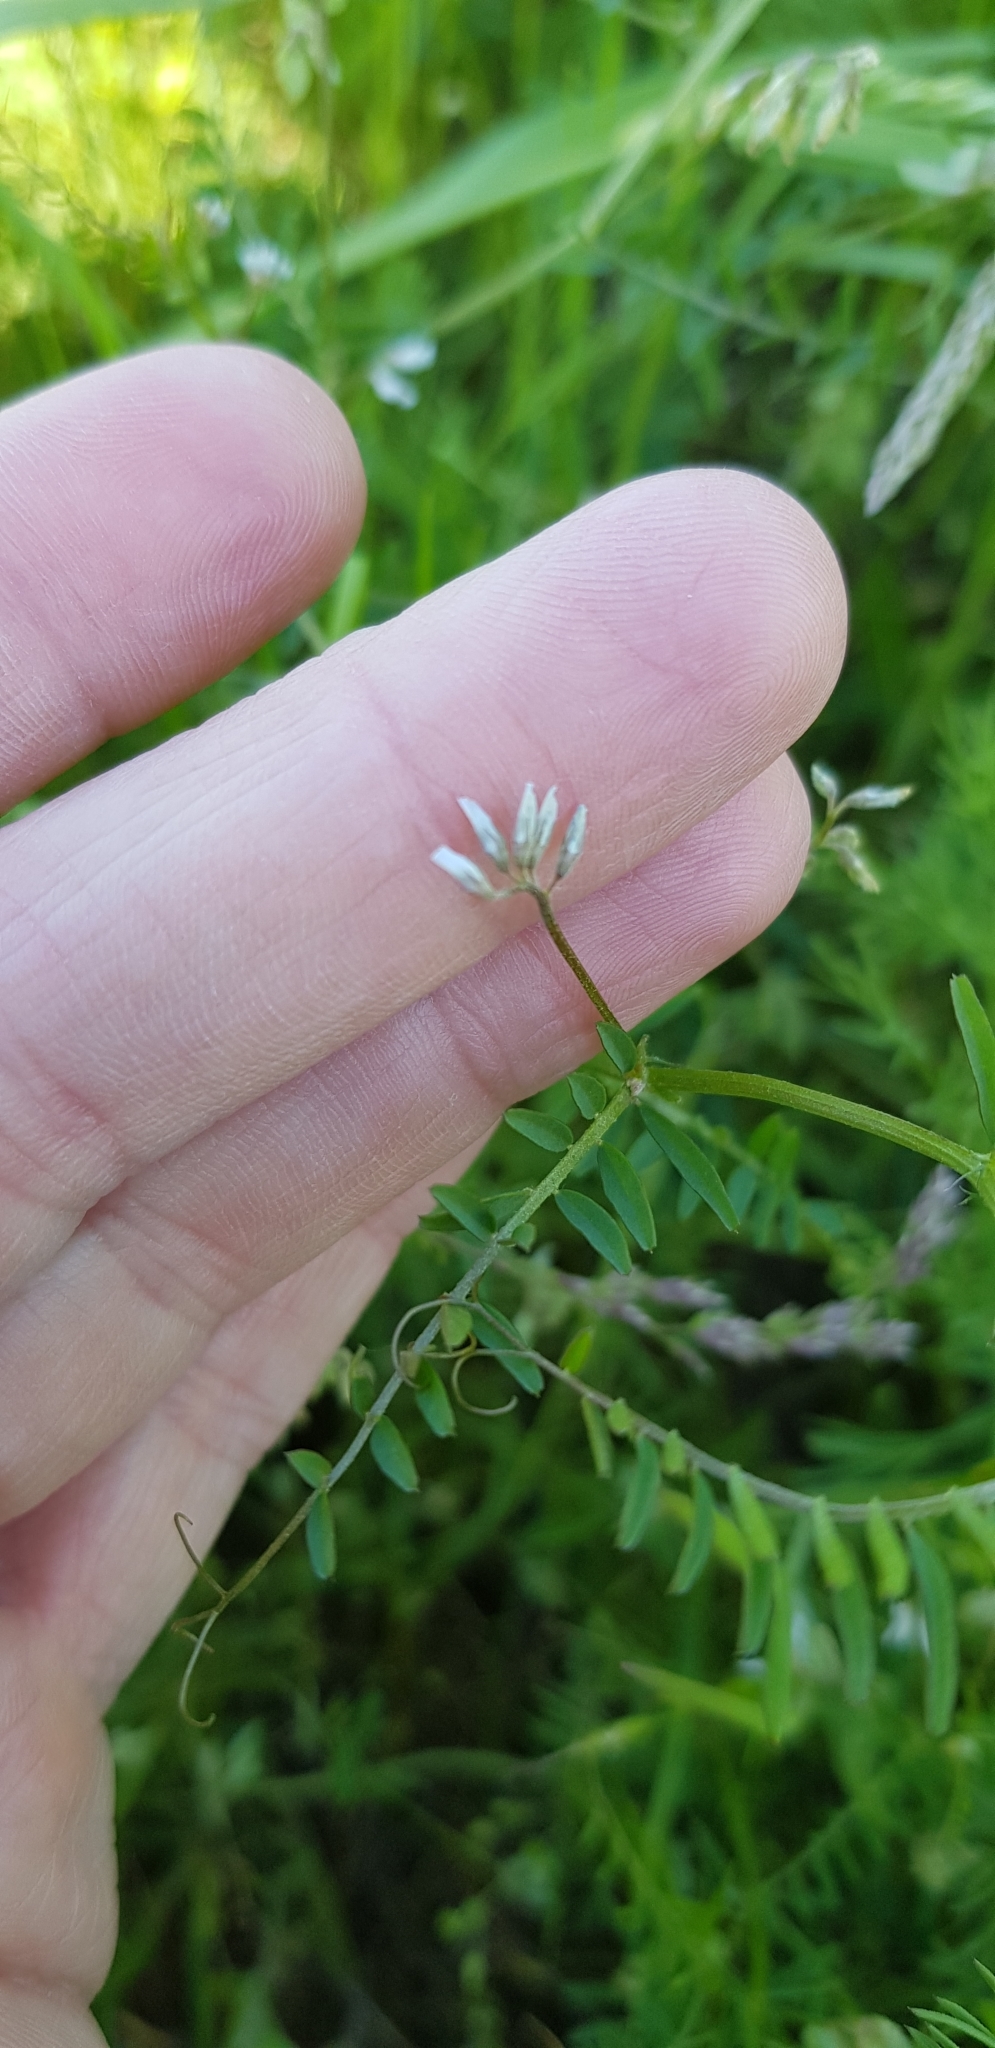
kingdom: Plantae
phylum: Tracheophyta
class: Magnoliopsida
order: Fabales
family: Fabaceae
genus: Vicia
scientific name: Vicia hirsuta
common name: Tiny vetch
